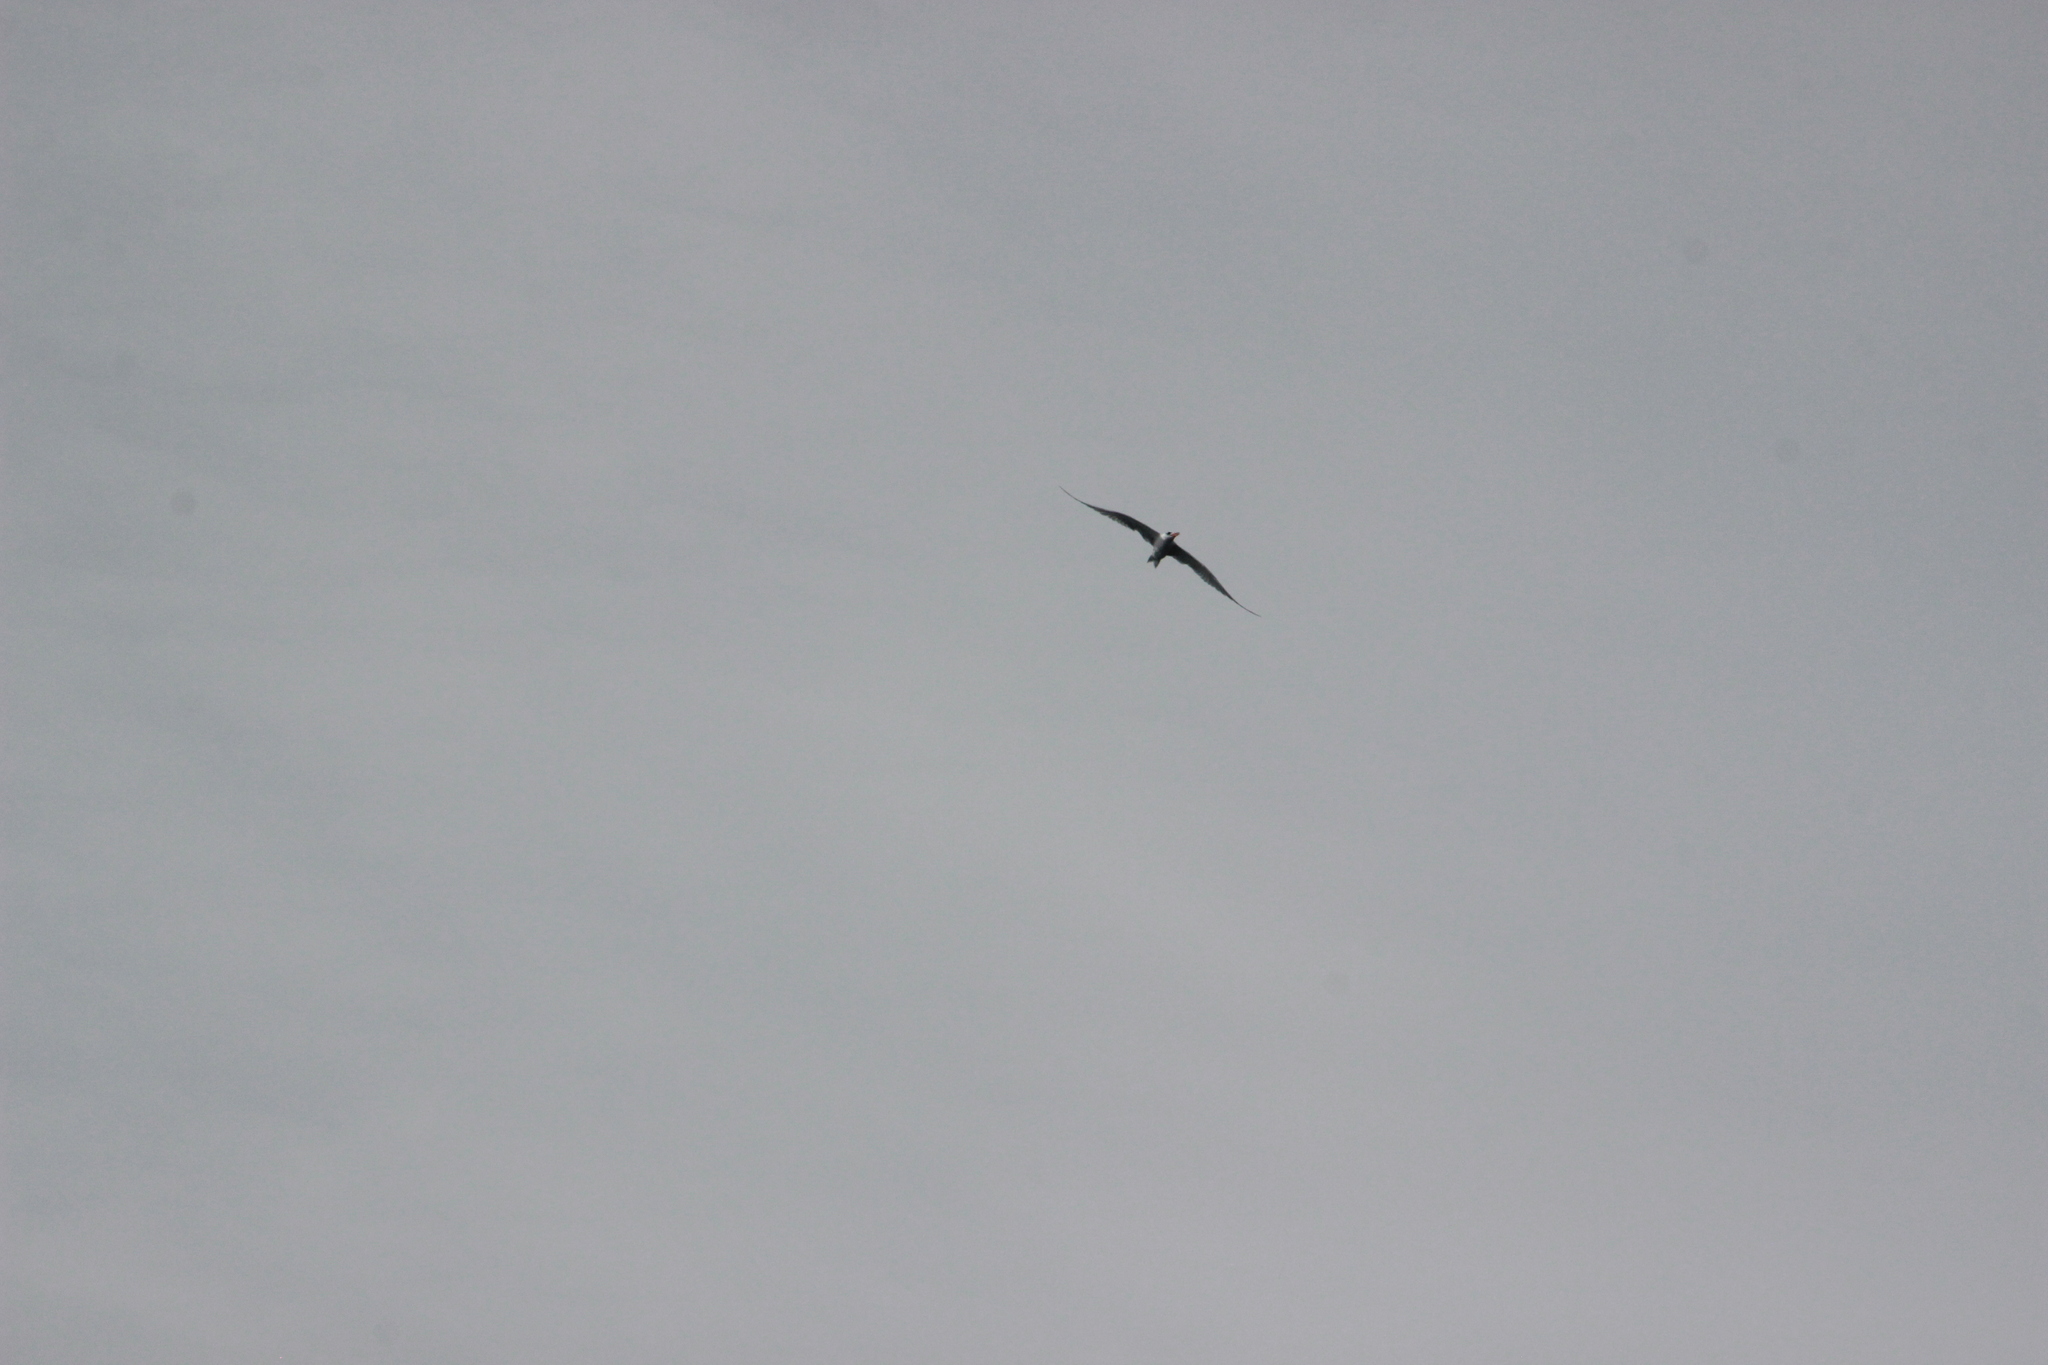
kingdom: Animalia
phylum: Chordata
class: Aves
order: Charadriiformes
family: Laridae
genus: Hydroprogne
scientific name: Hydroprogne caspia
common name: Caspian tern
